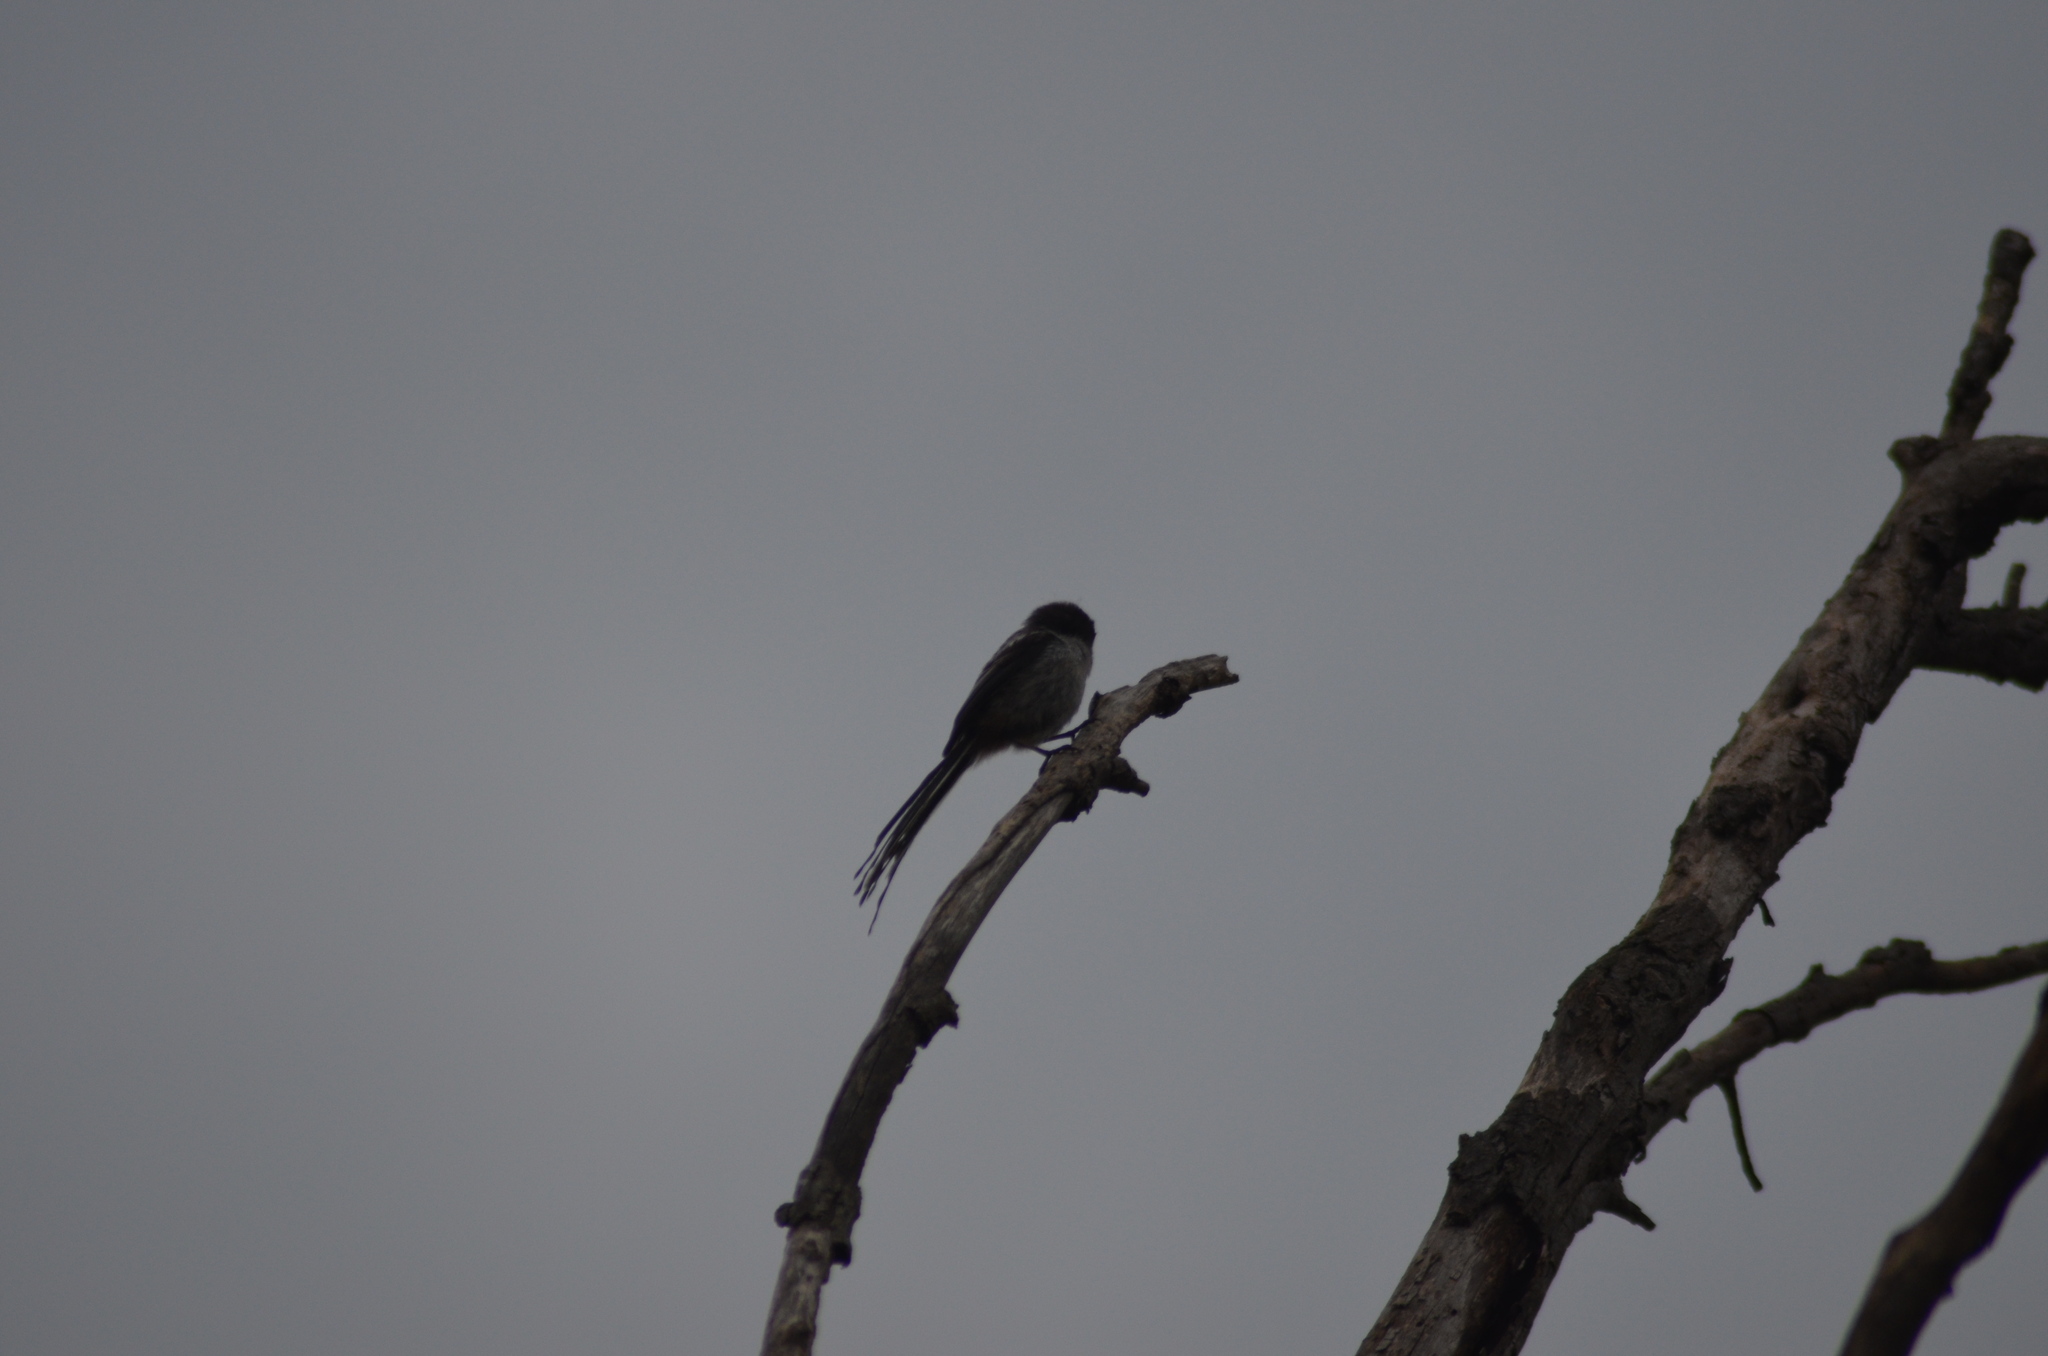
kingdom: Animalia
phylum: Chordata
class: Aves
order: Passeriformes
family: Aegithalidae
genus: Aegithalos
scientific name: Aegithalos caudatus
